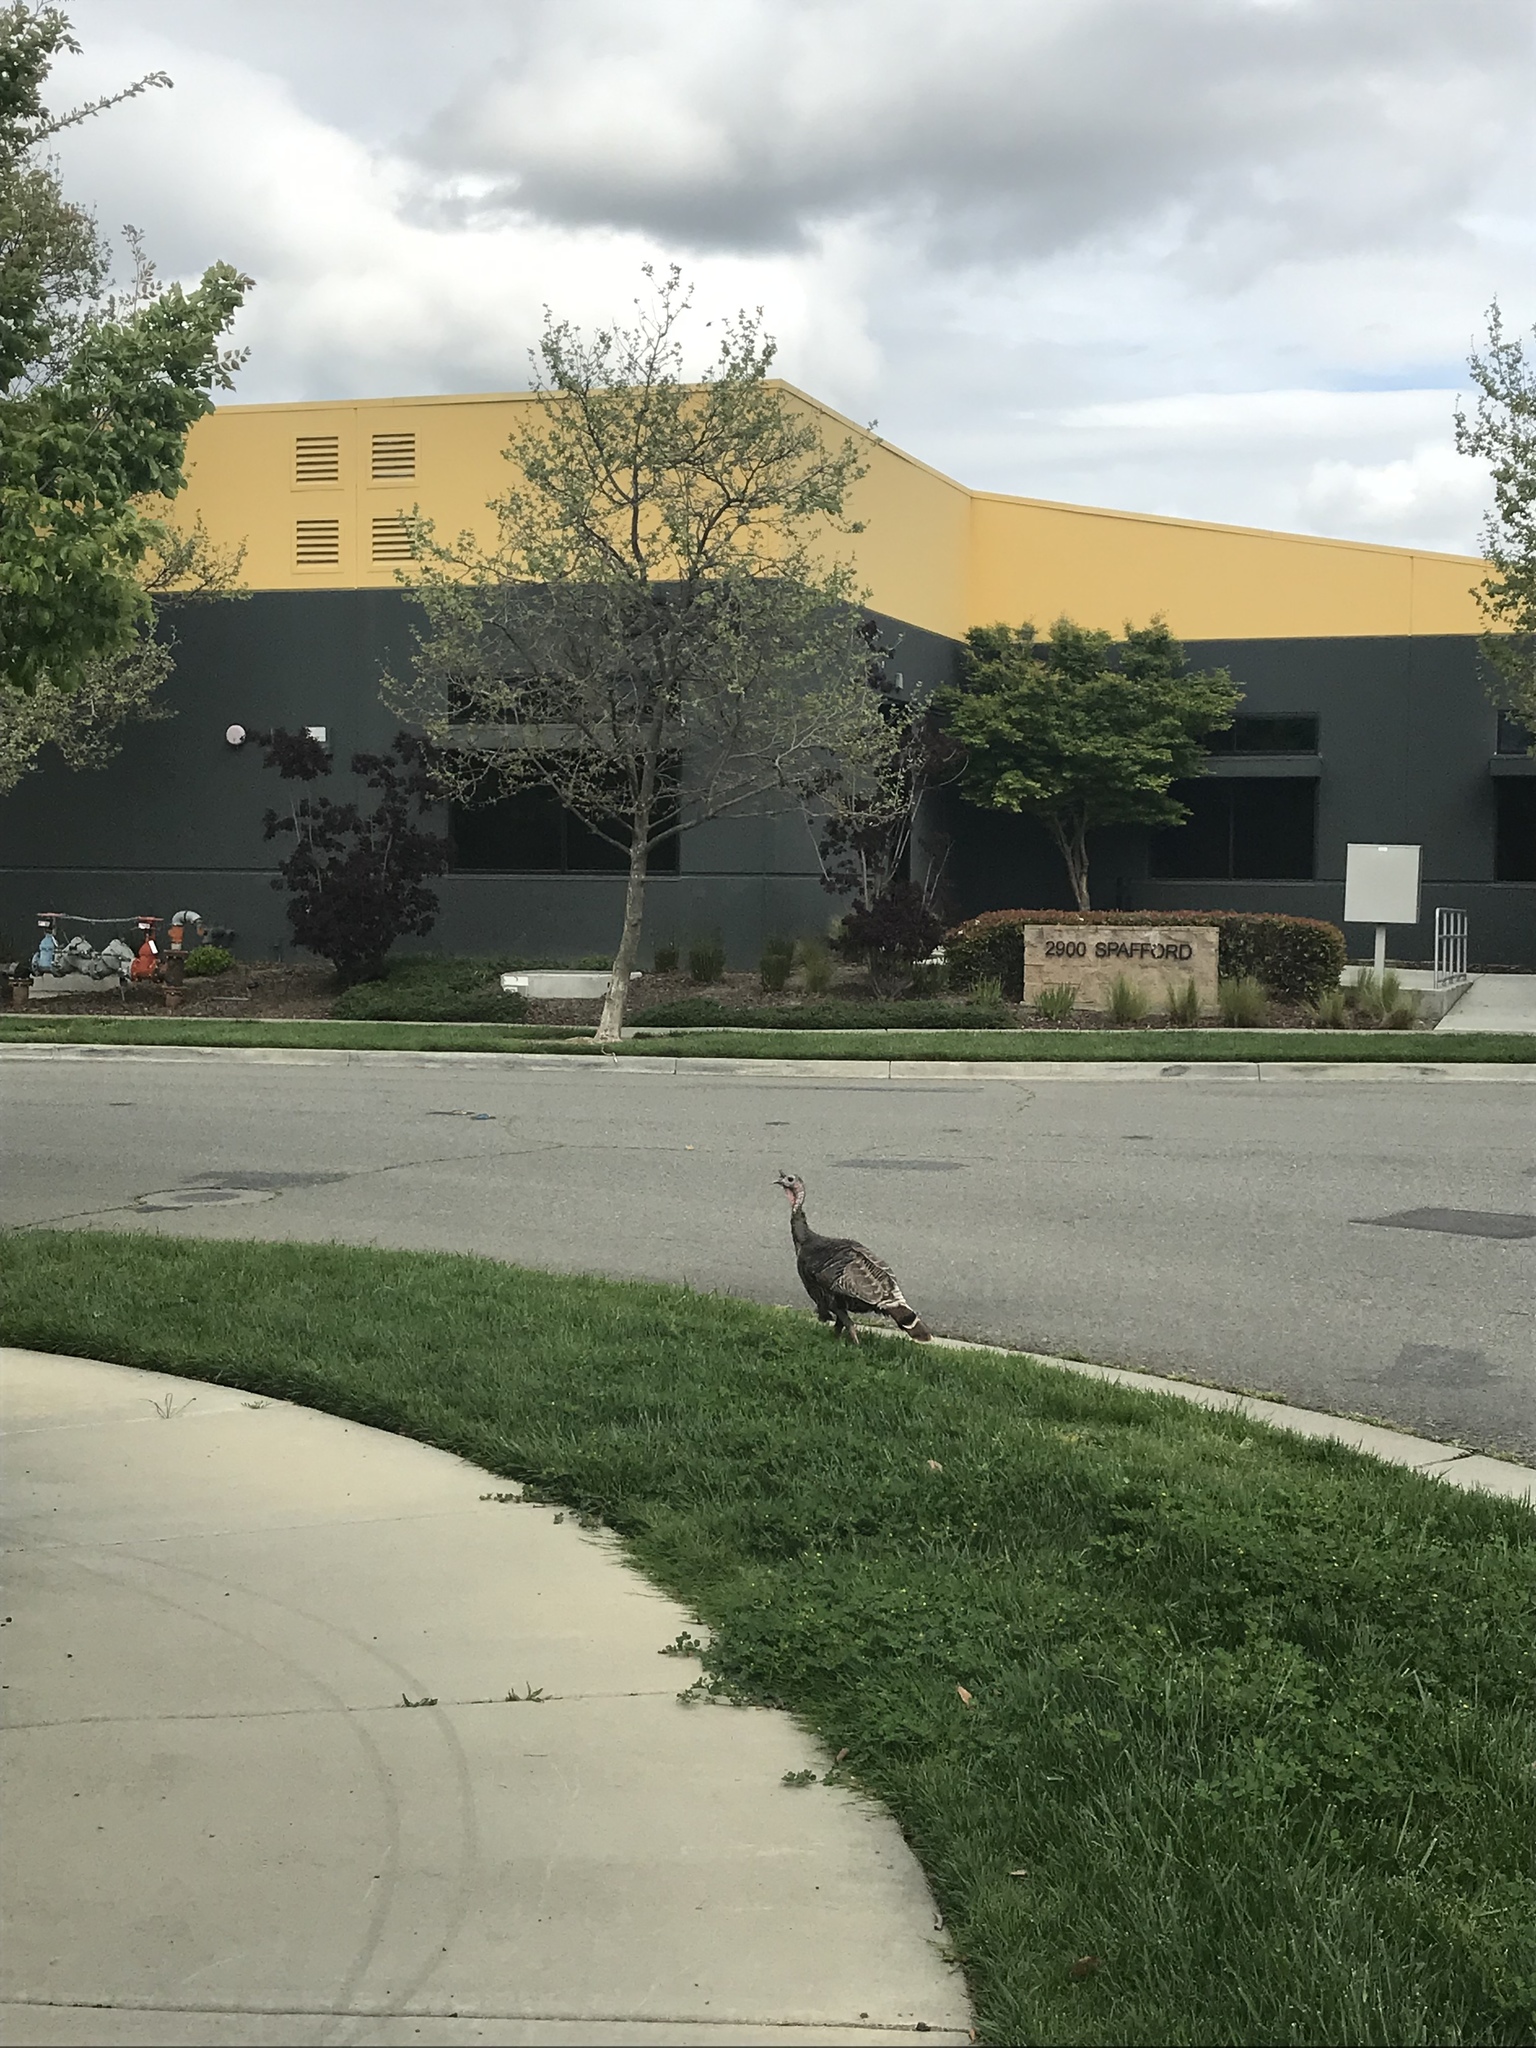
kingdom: Animalia
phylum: Chordata
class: Aves
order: Galliformes
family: Phasianidae
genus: Meleagris
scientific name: Meleagris gallopavo
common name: Wild turkey
